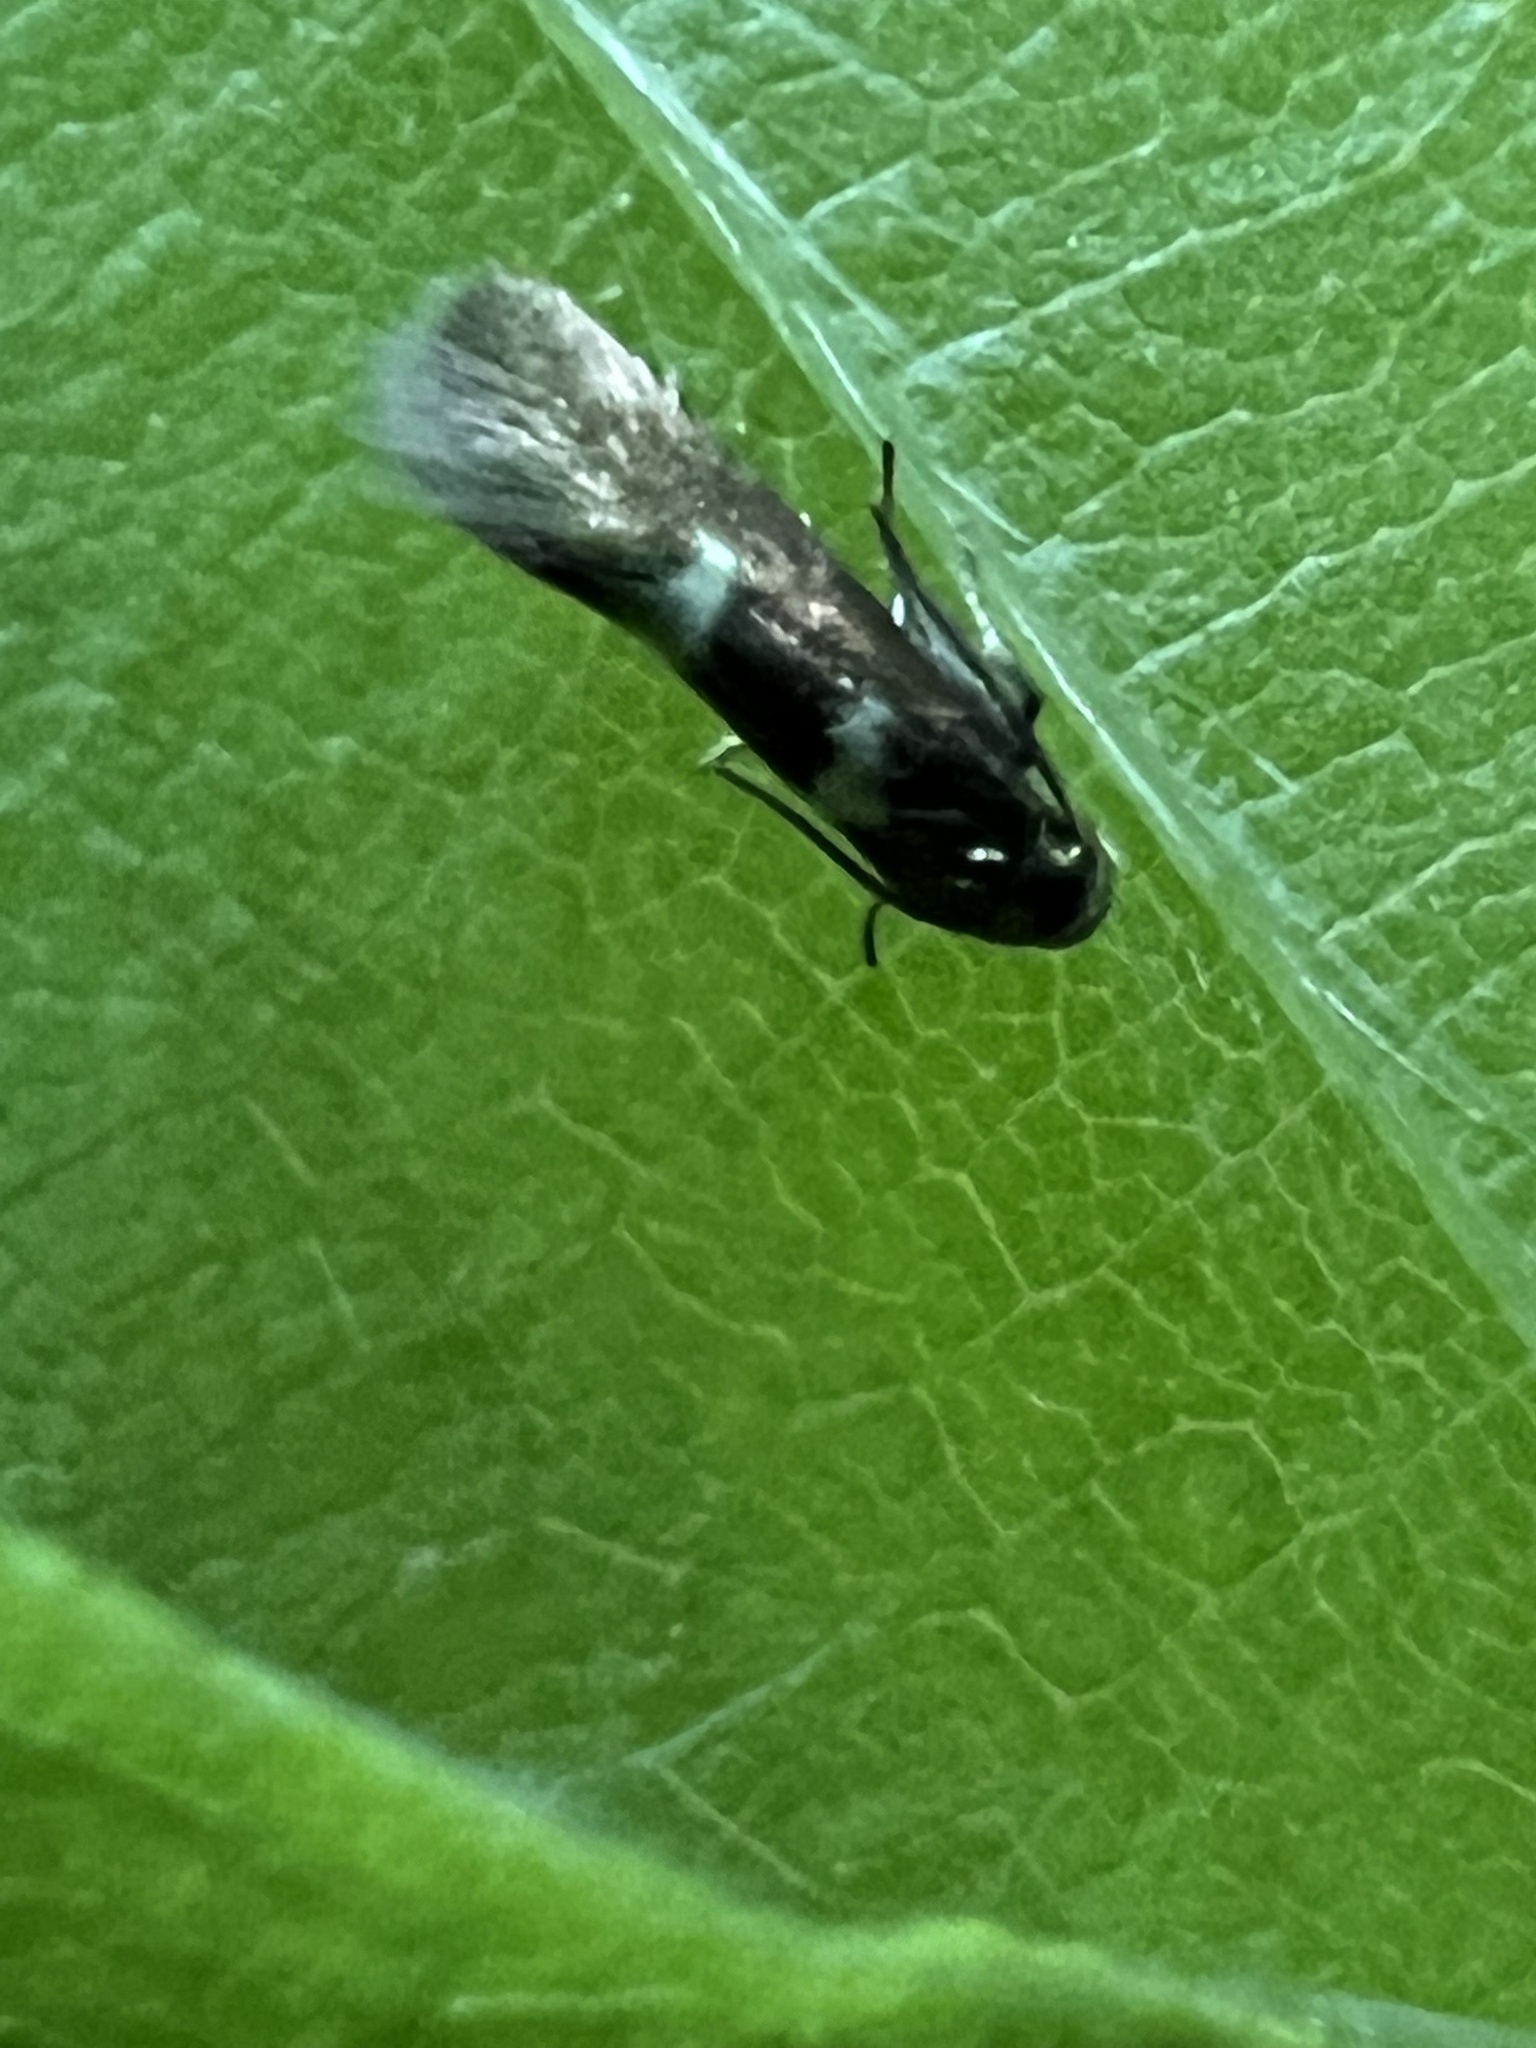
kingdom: Animalia
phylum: Arthropoda
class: Insecta
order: Lepidoptera
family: Heliozelidae
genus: Heliozela
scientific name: Heliozela aesella
